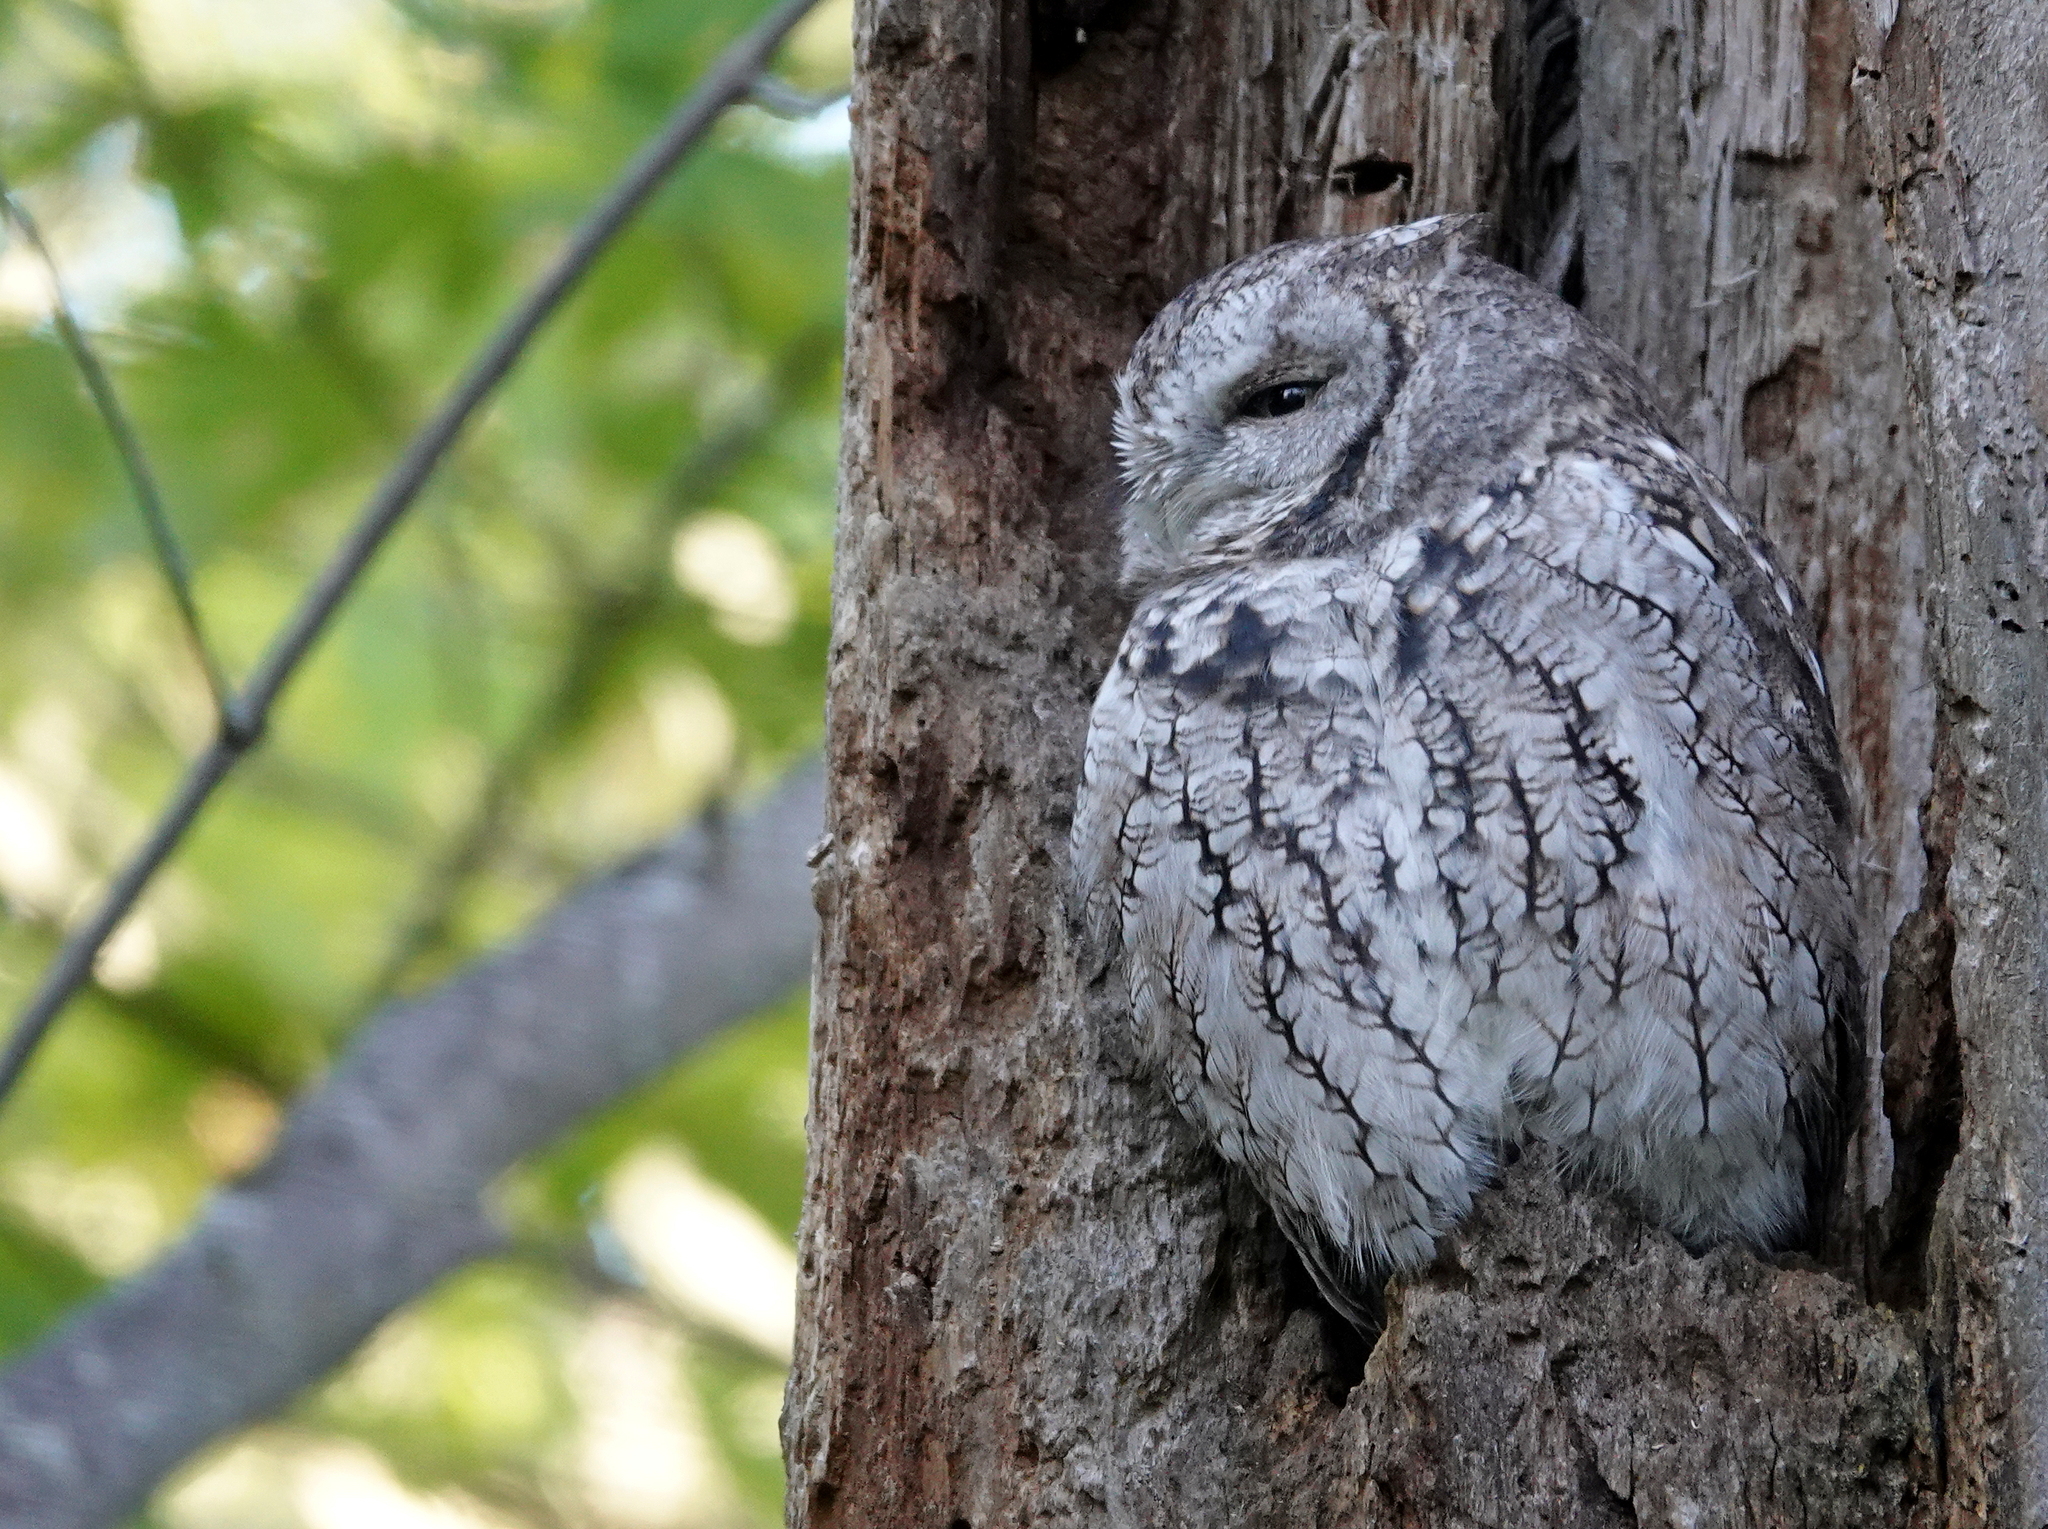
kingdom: Animalia
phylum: Chordata
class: Aves
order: Strigiformes
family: Strigidae
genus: Megascops
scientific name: Megascops asio
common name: Eastern screech-owl
